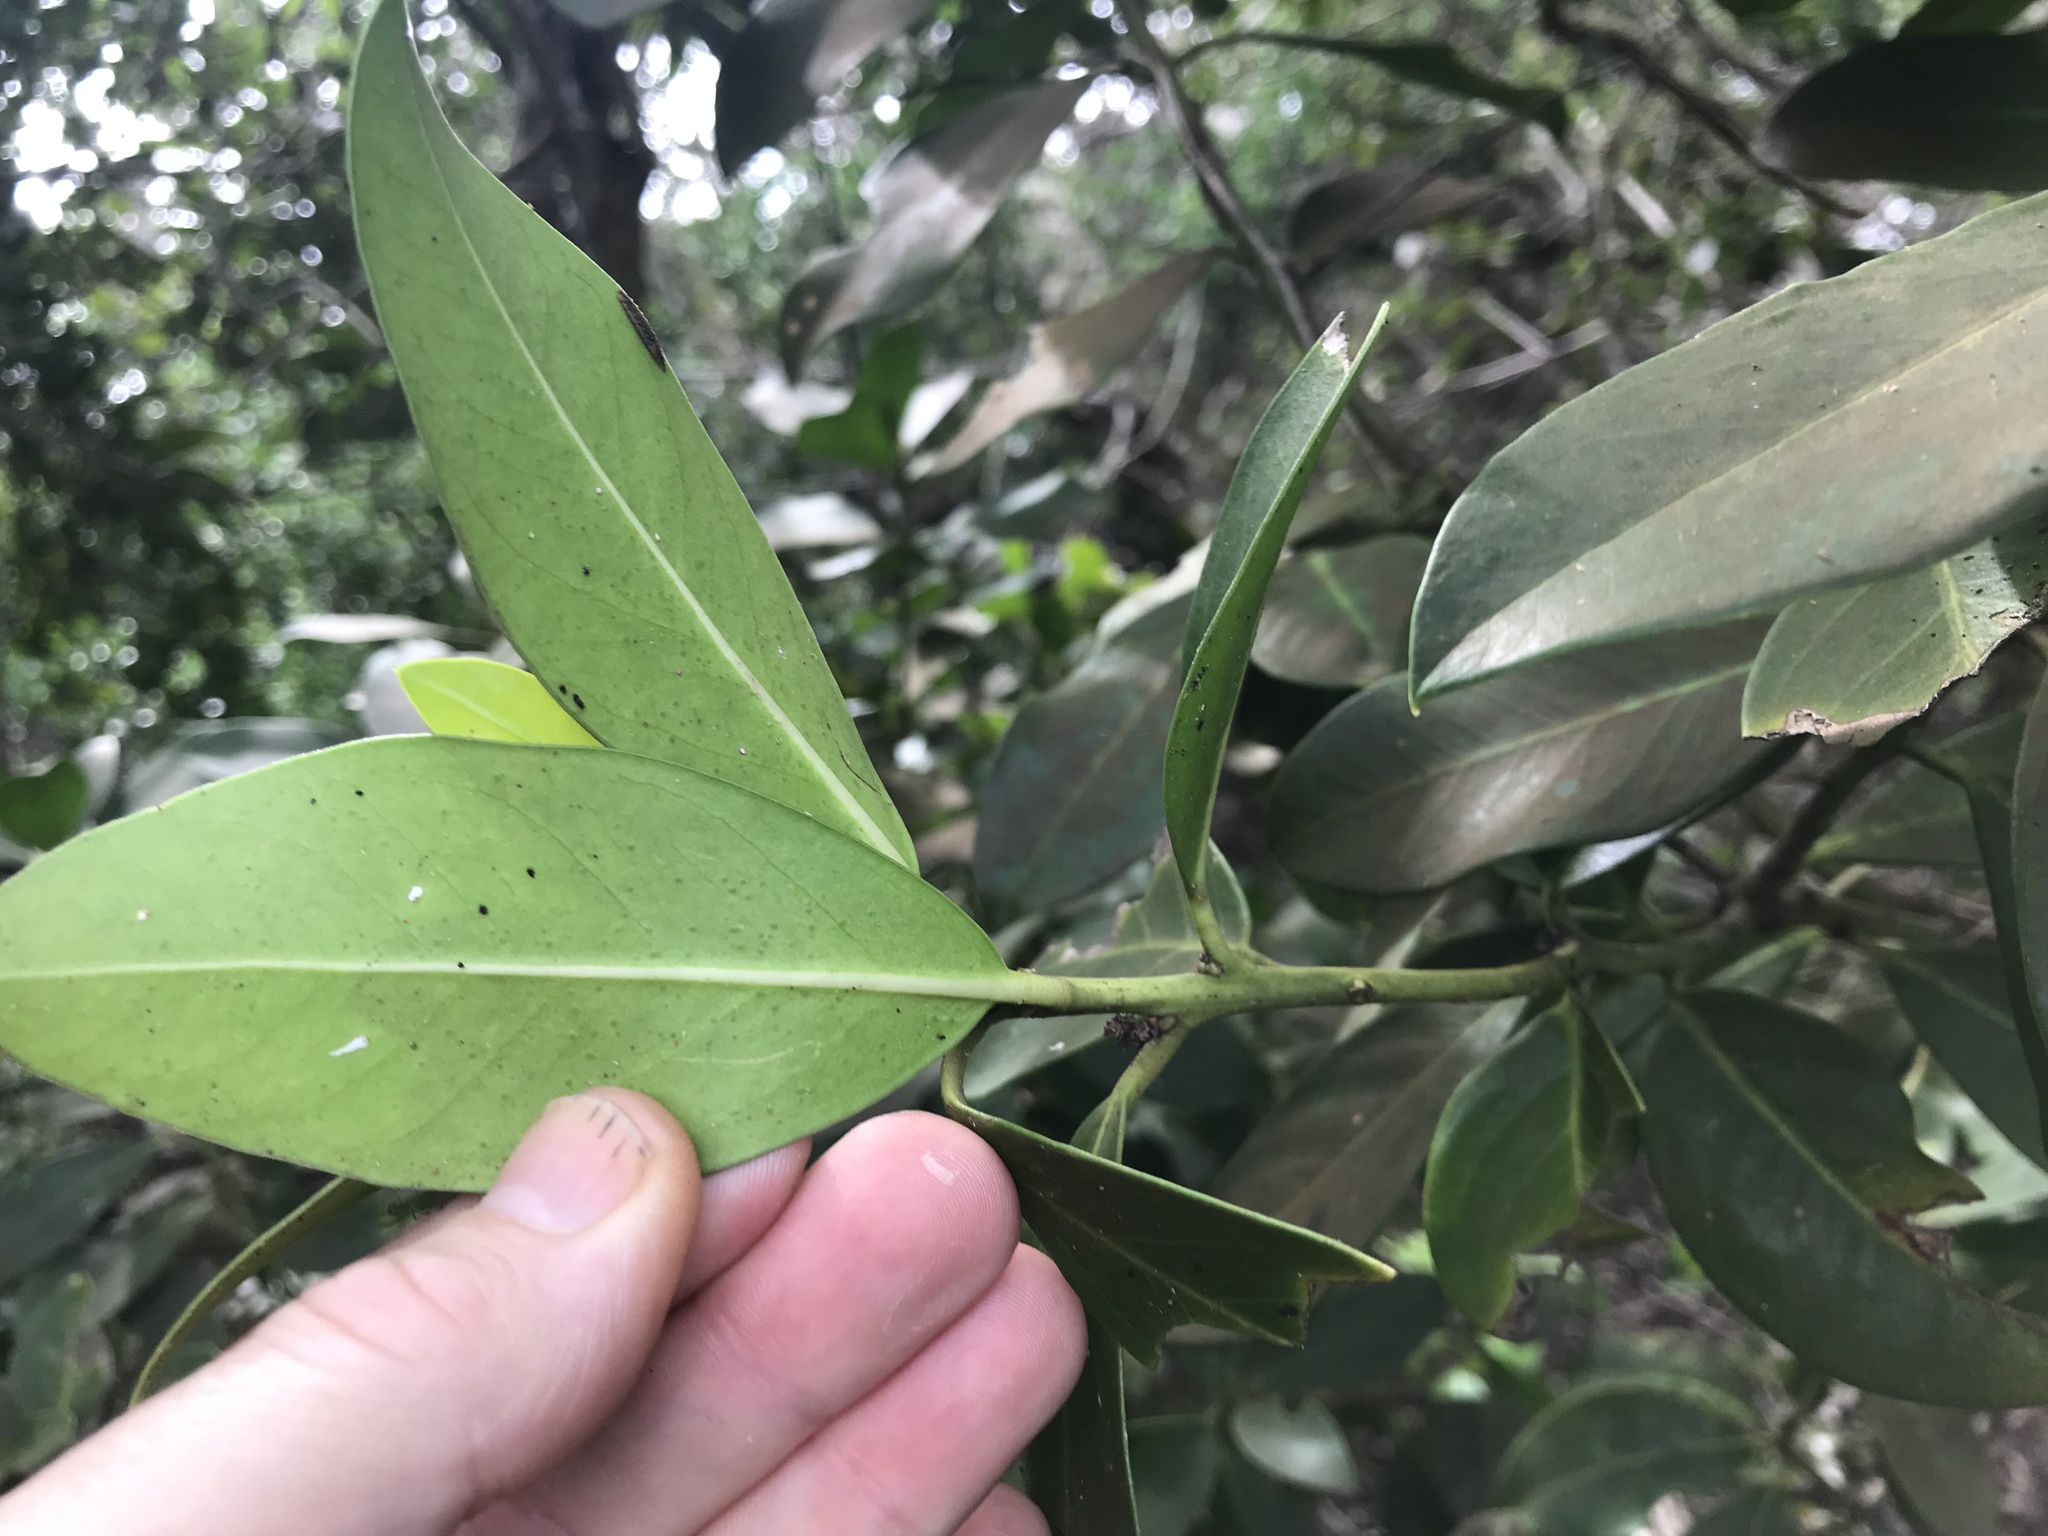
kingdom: Plantae
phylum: Tracheophyta
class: Magnoliopsida
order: Gentianales
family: Apocynaceae
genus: Acokanthera
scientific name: Acokanthera oppositifolia
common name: Bushman's-poison
